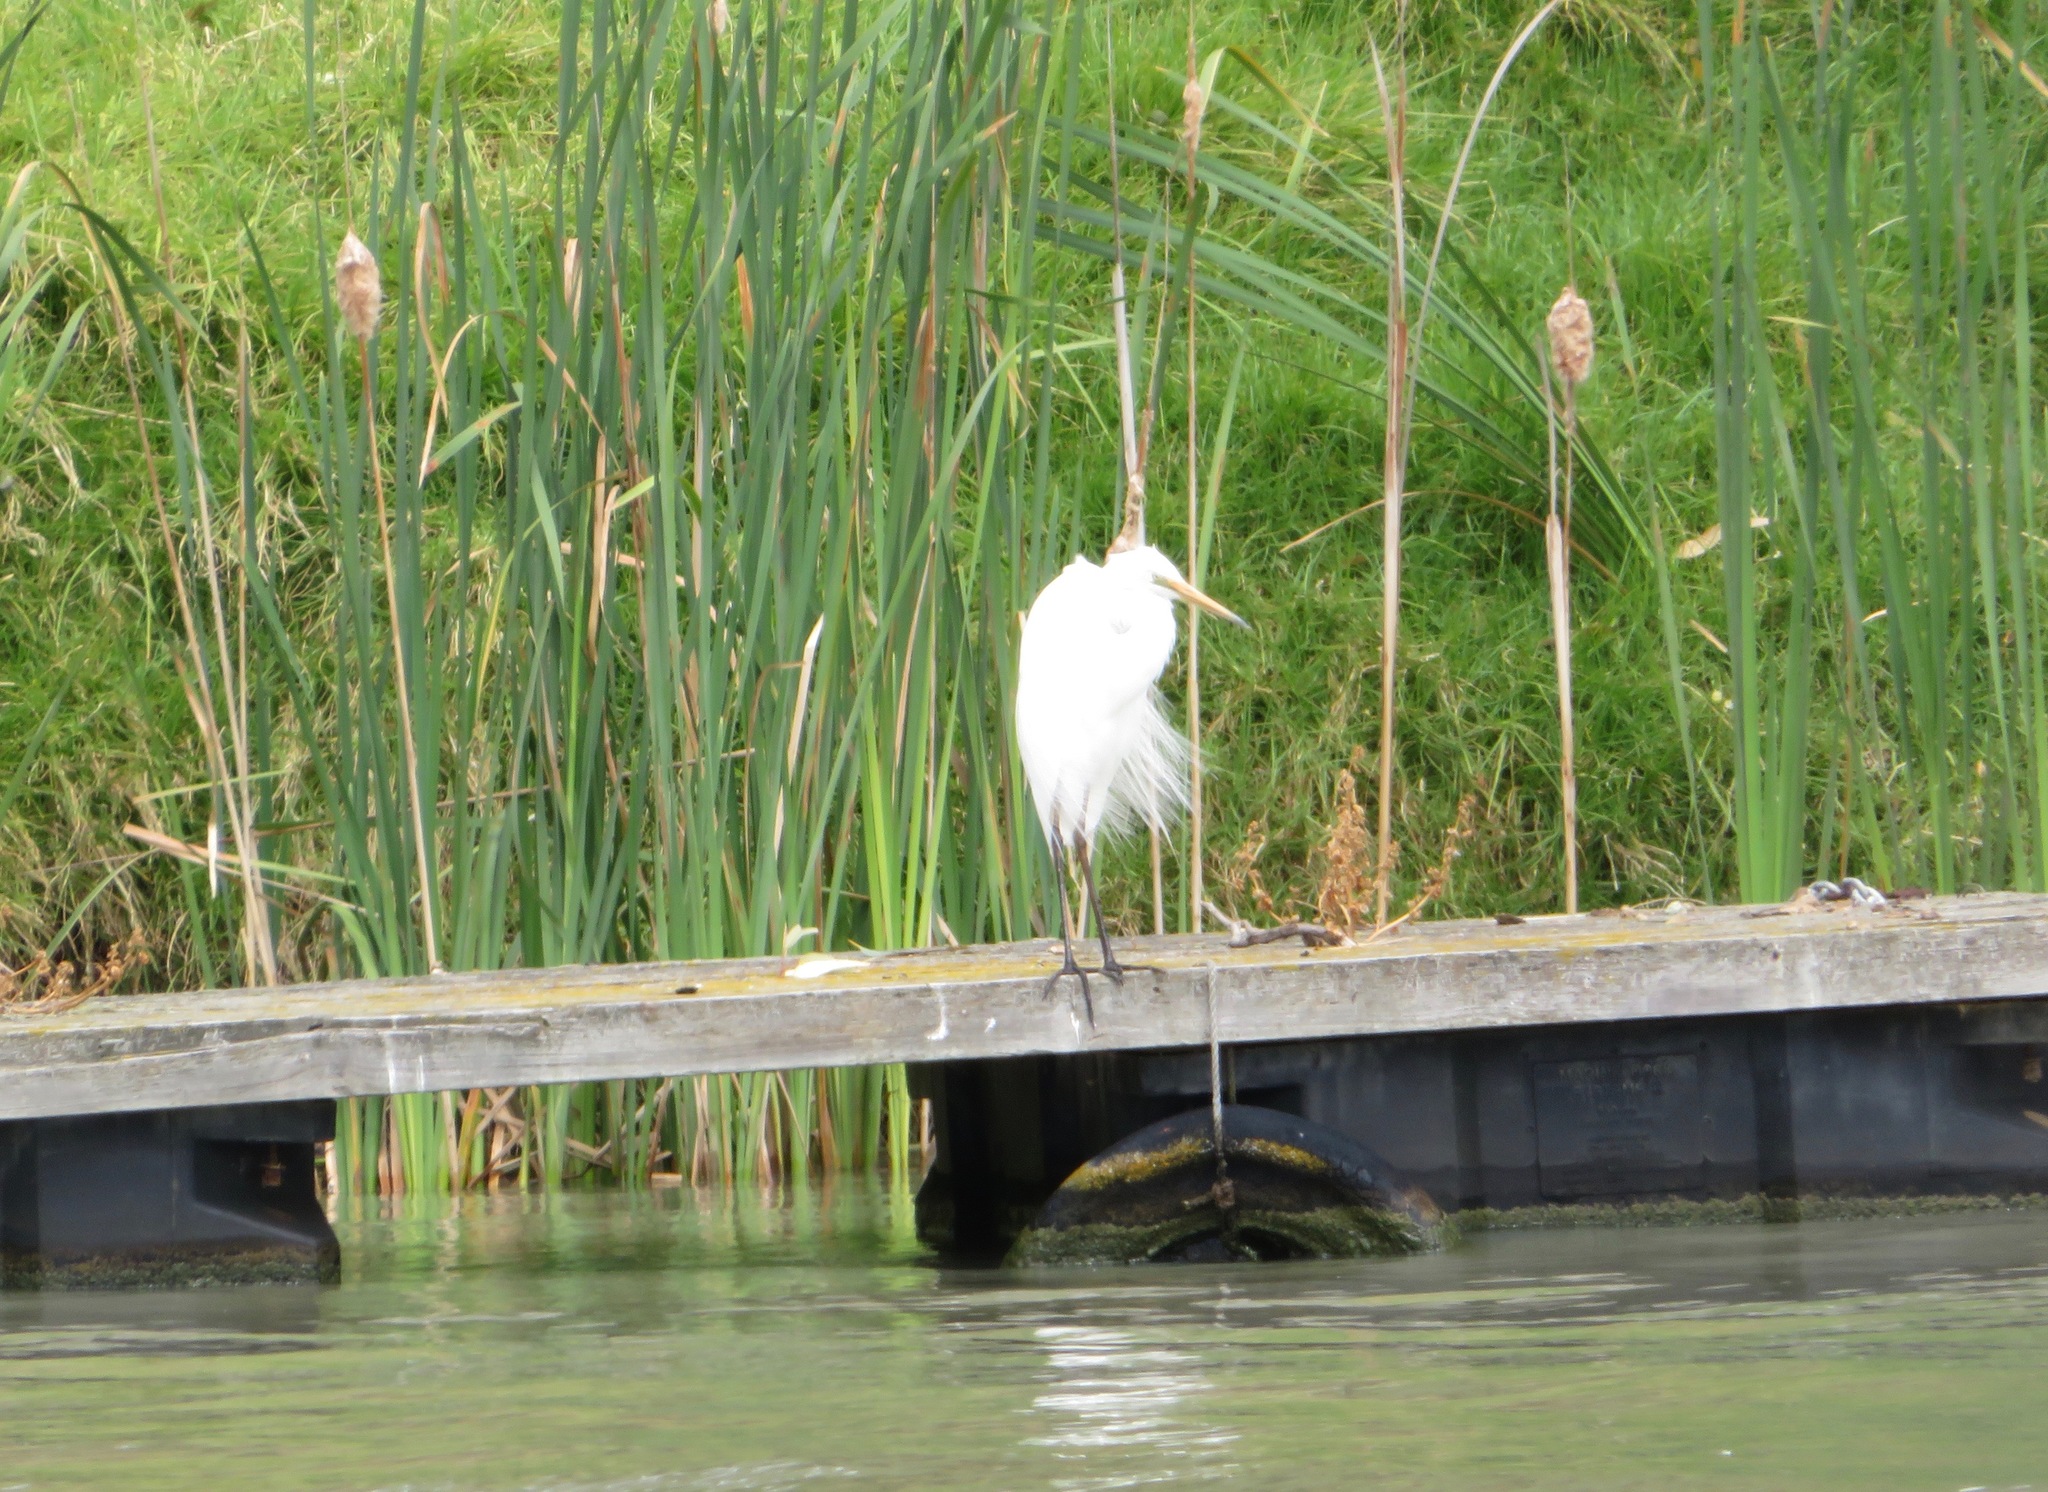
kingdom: Animalia
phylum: Chordata
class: Aves
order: Pelecaniformes
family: Ardeidae
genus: Ardea
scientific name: Ardea modesta
